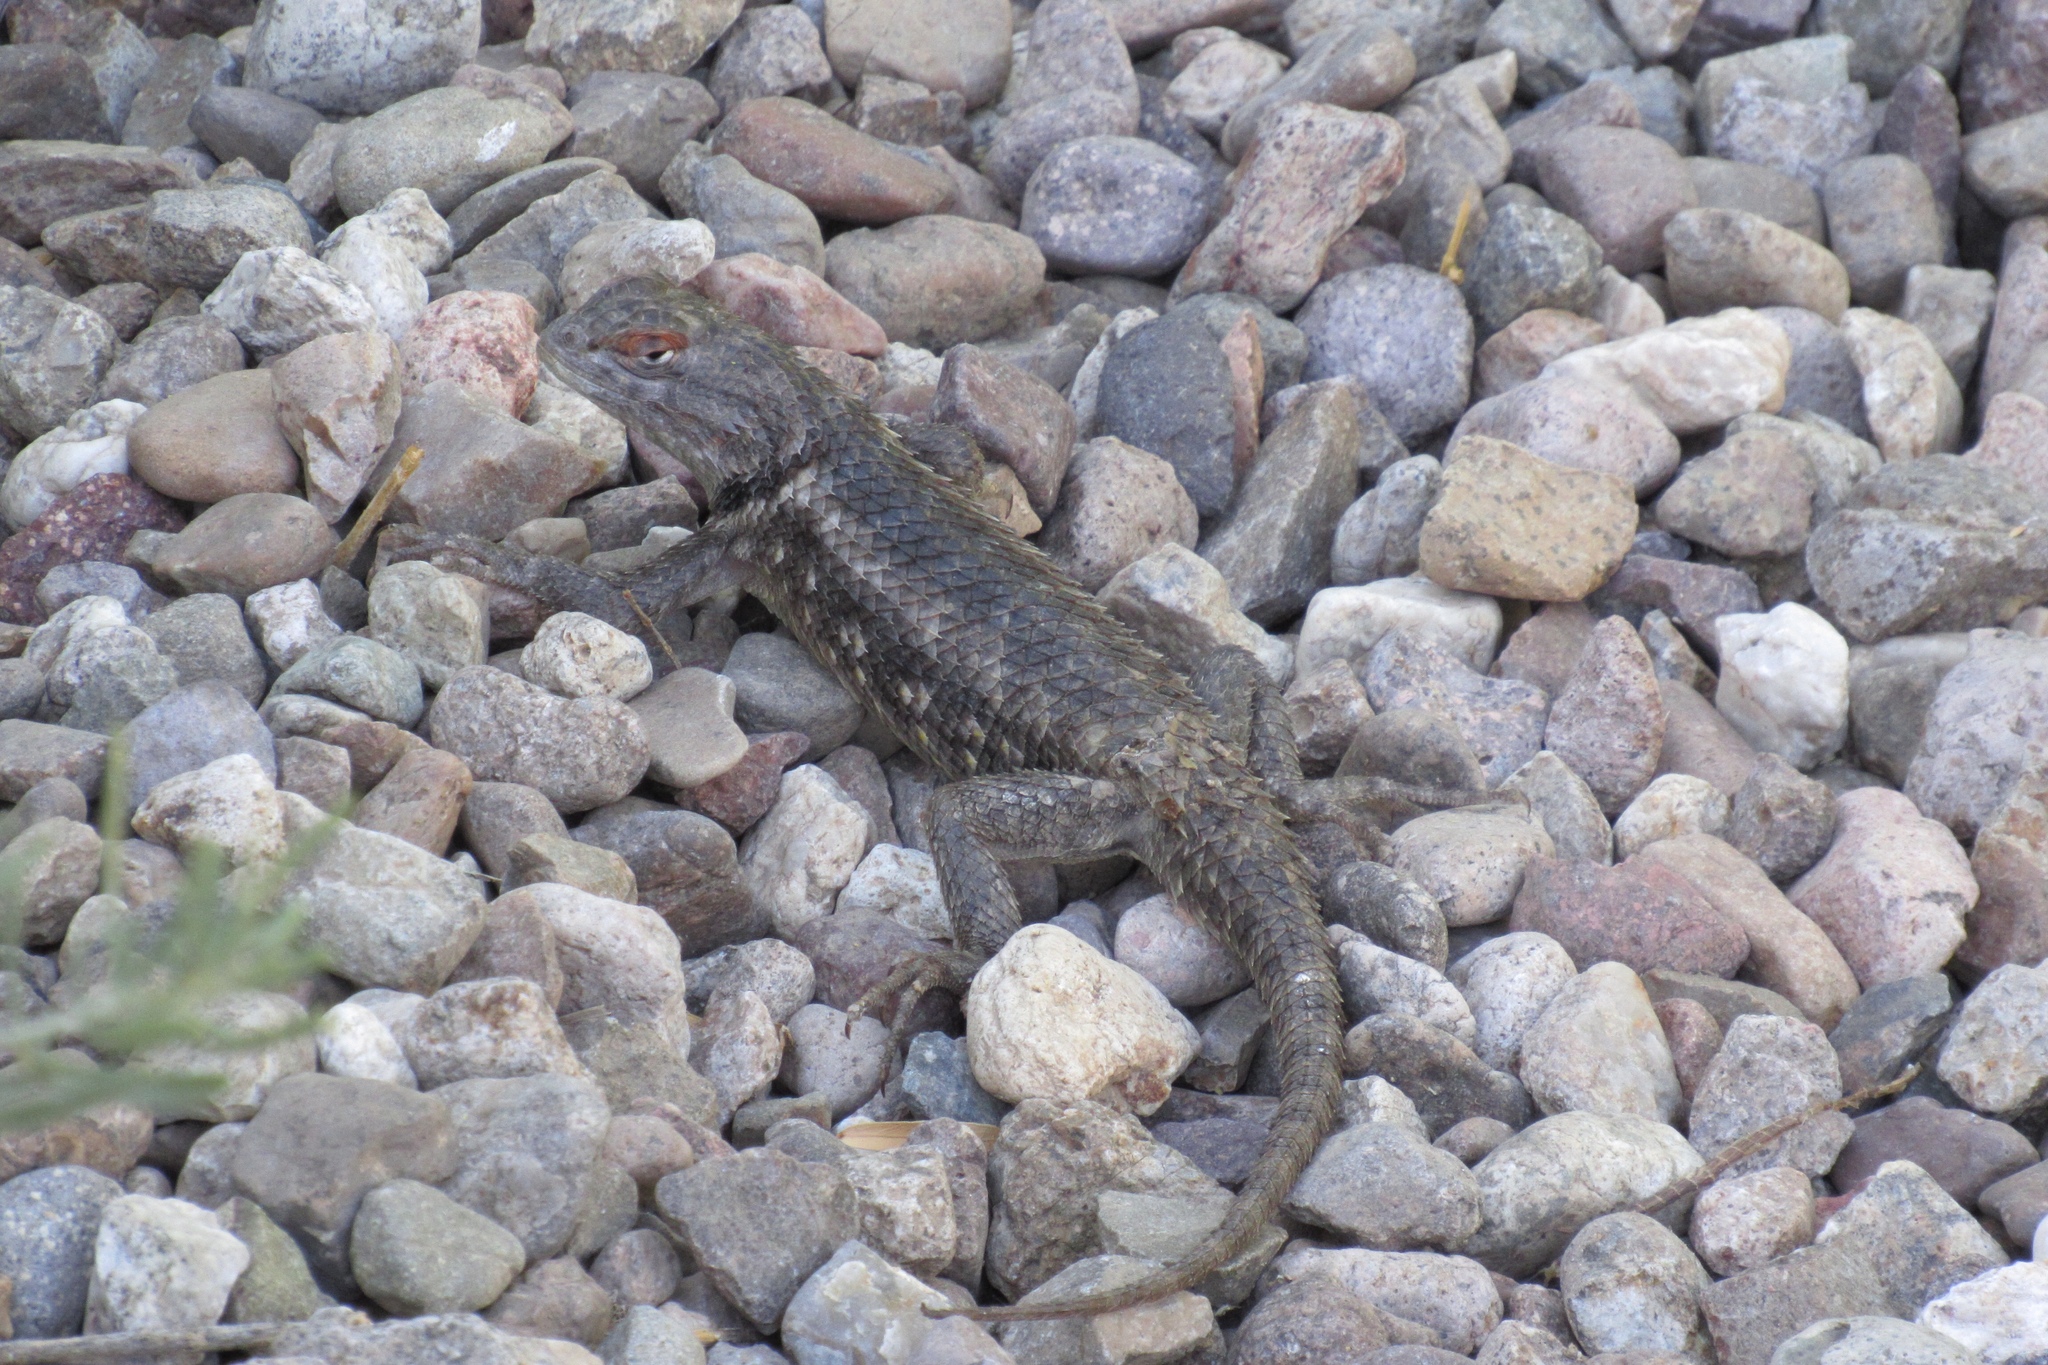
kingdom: Animalia
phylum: Chordata
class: Squamata
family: Phrynosomatidae
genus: Sceloporus
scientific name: Sceloporus magister
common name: Desert spiny lizard
